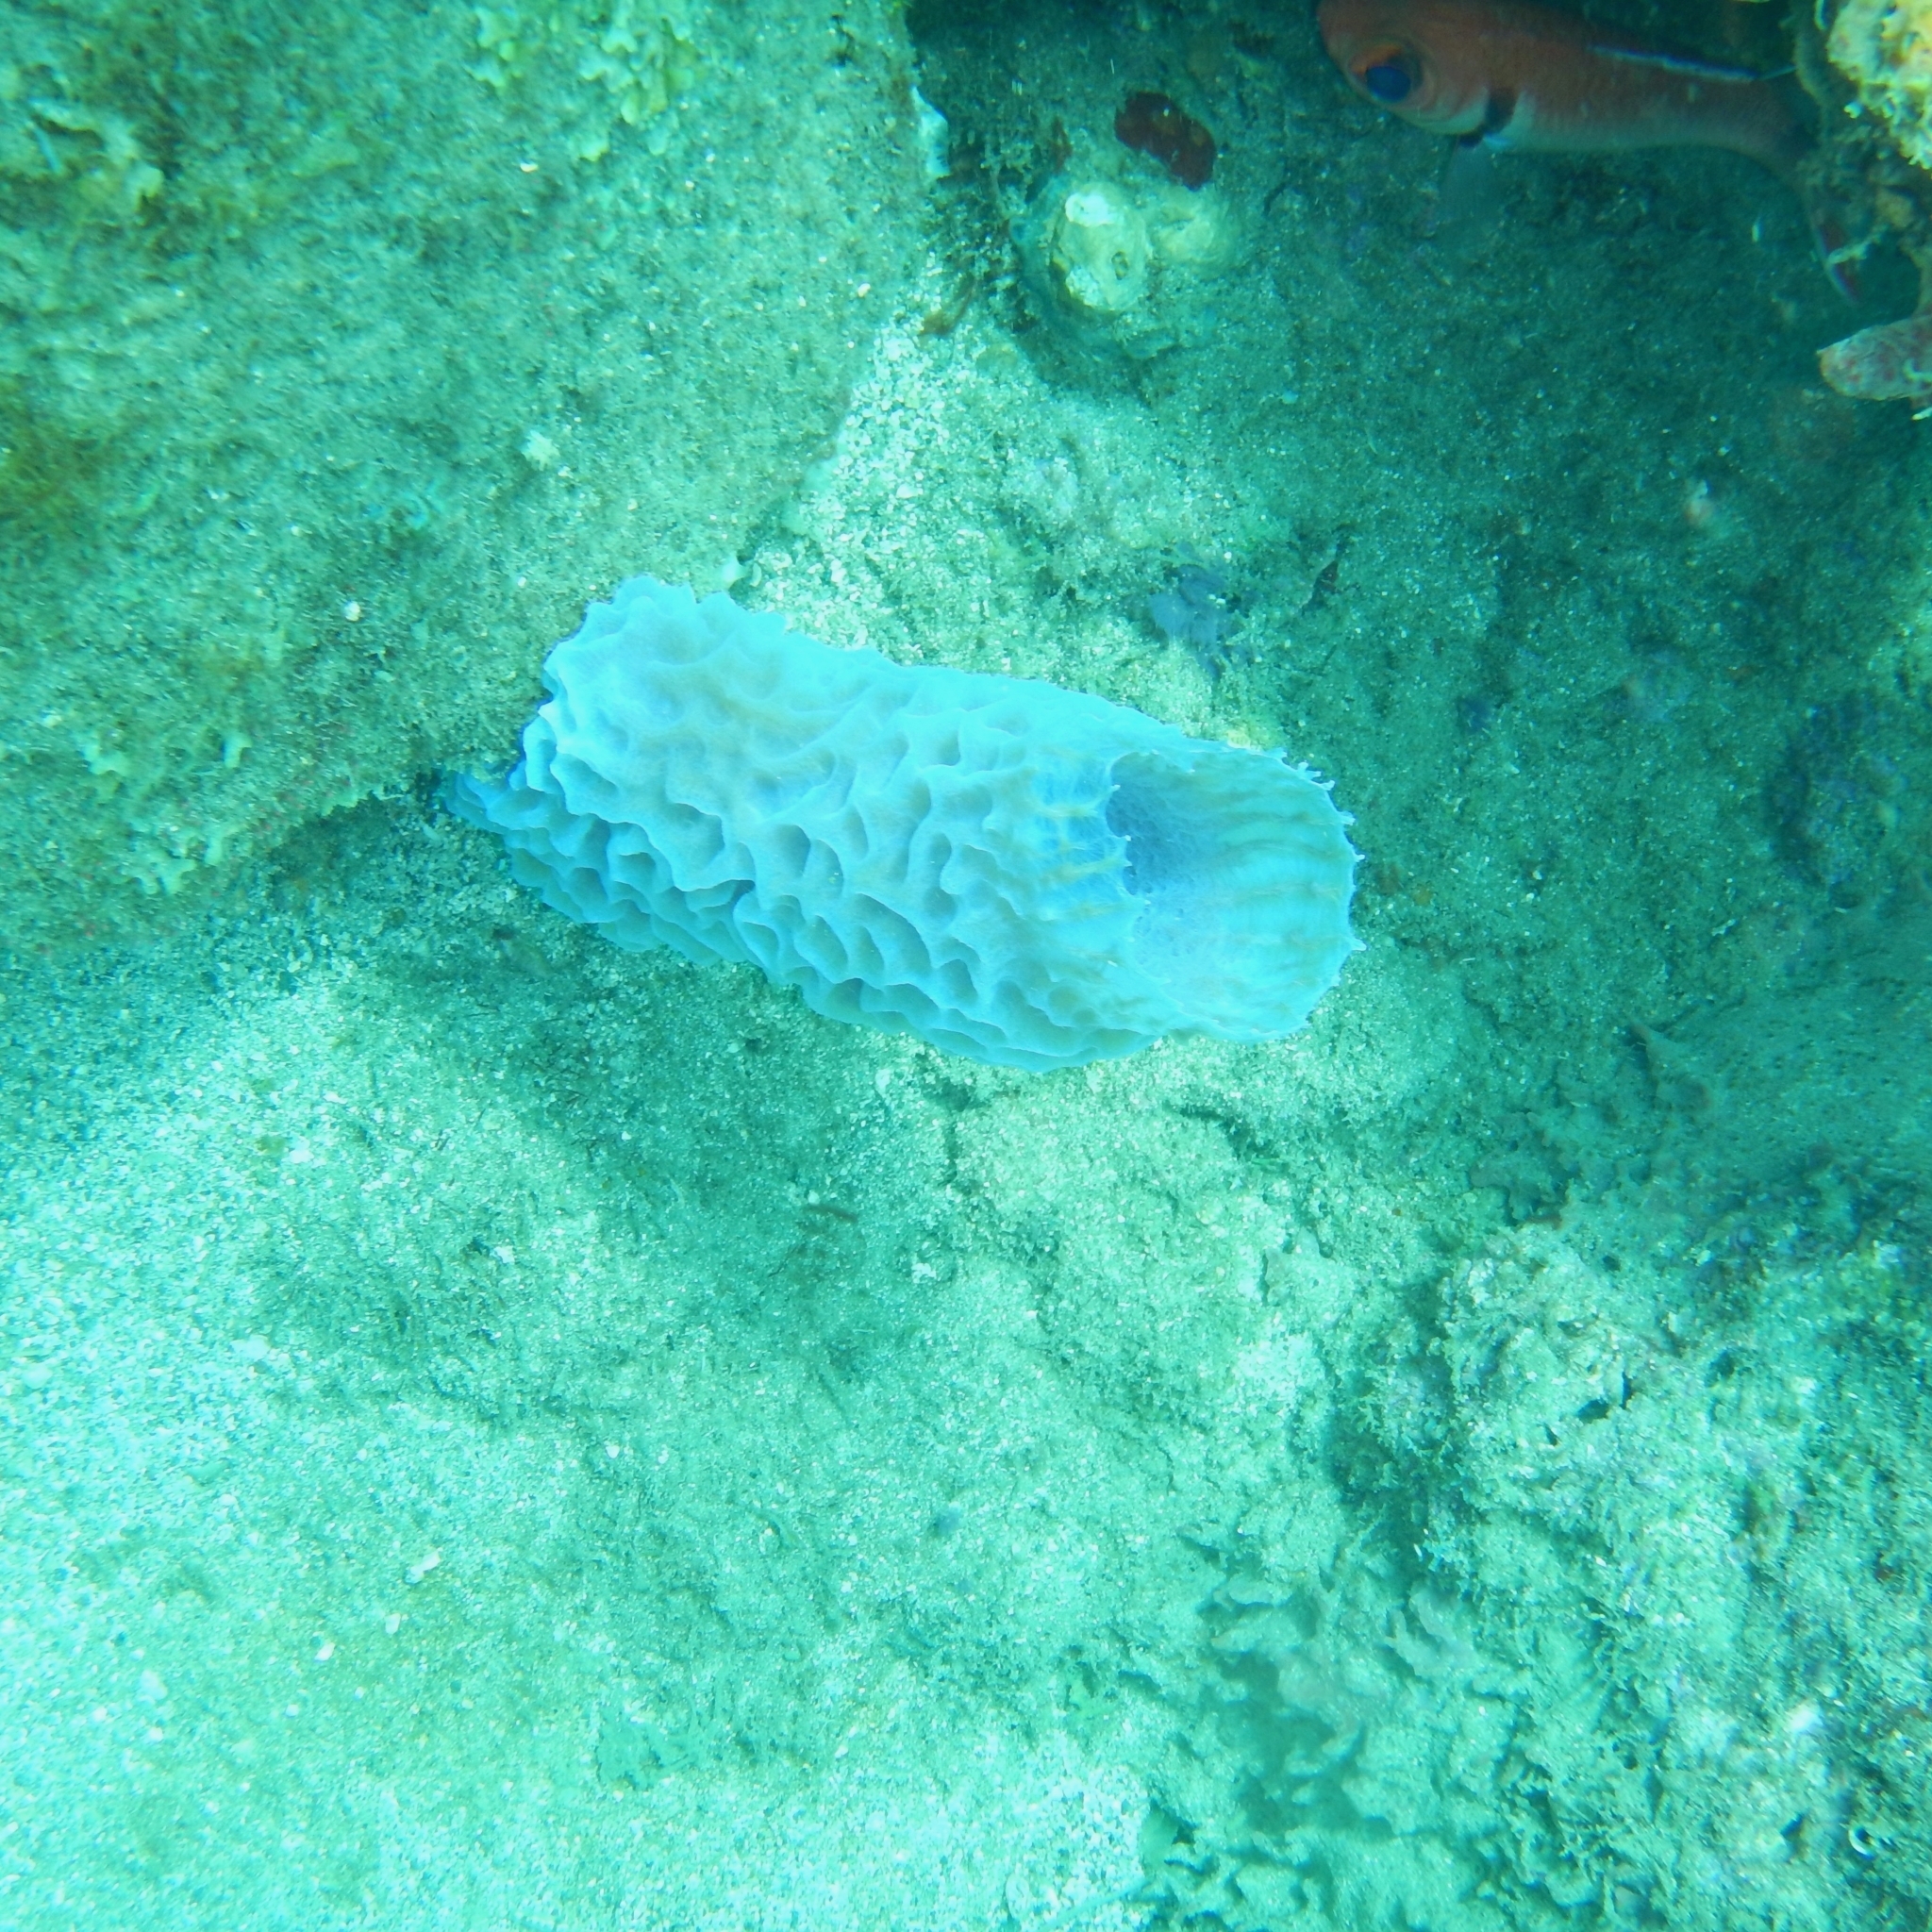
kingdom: Animalia
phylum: Porifera
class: Demospongiae
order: Haplosclerida
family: Callyspongiidae
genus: Callyspongia
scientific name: Callyspongia plicifera
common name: Azure vase sponge
